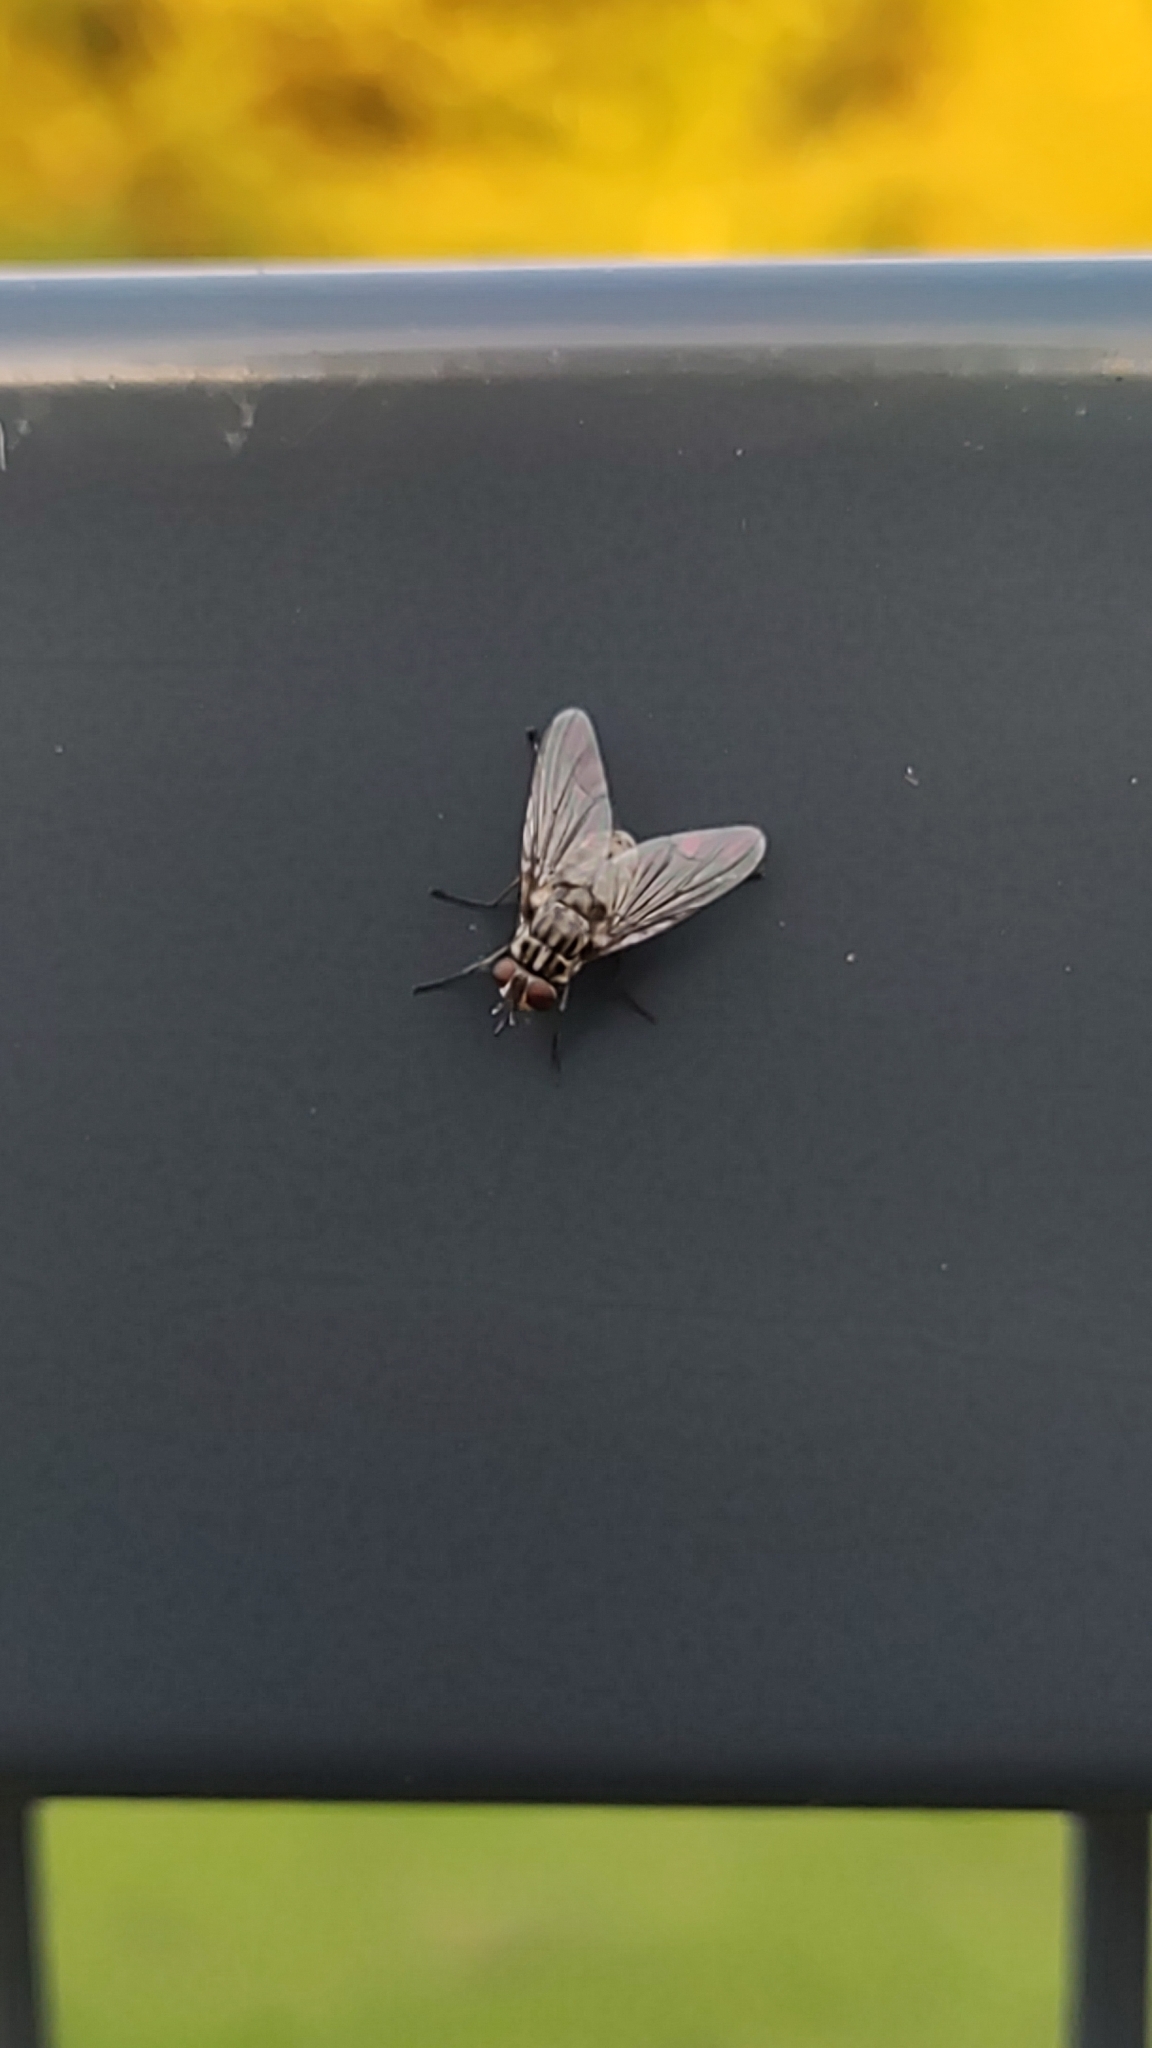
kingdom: Animalia
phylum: Arthropoda
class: Insecta
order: Diptera
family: Muscidae
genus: Stomoxys
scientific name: Stomoxys calcitrans
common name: Stable fly
